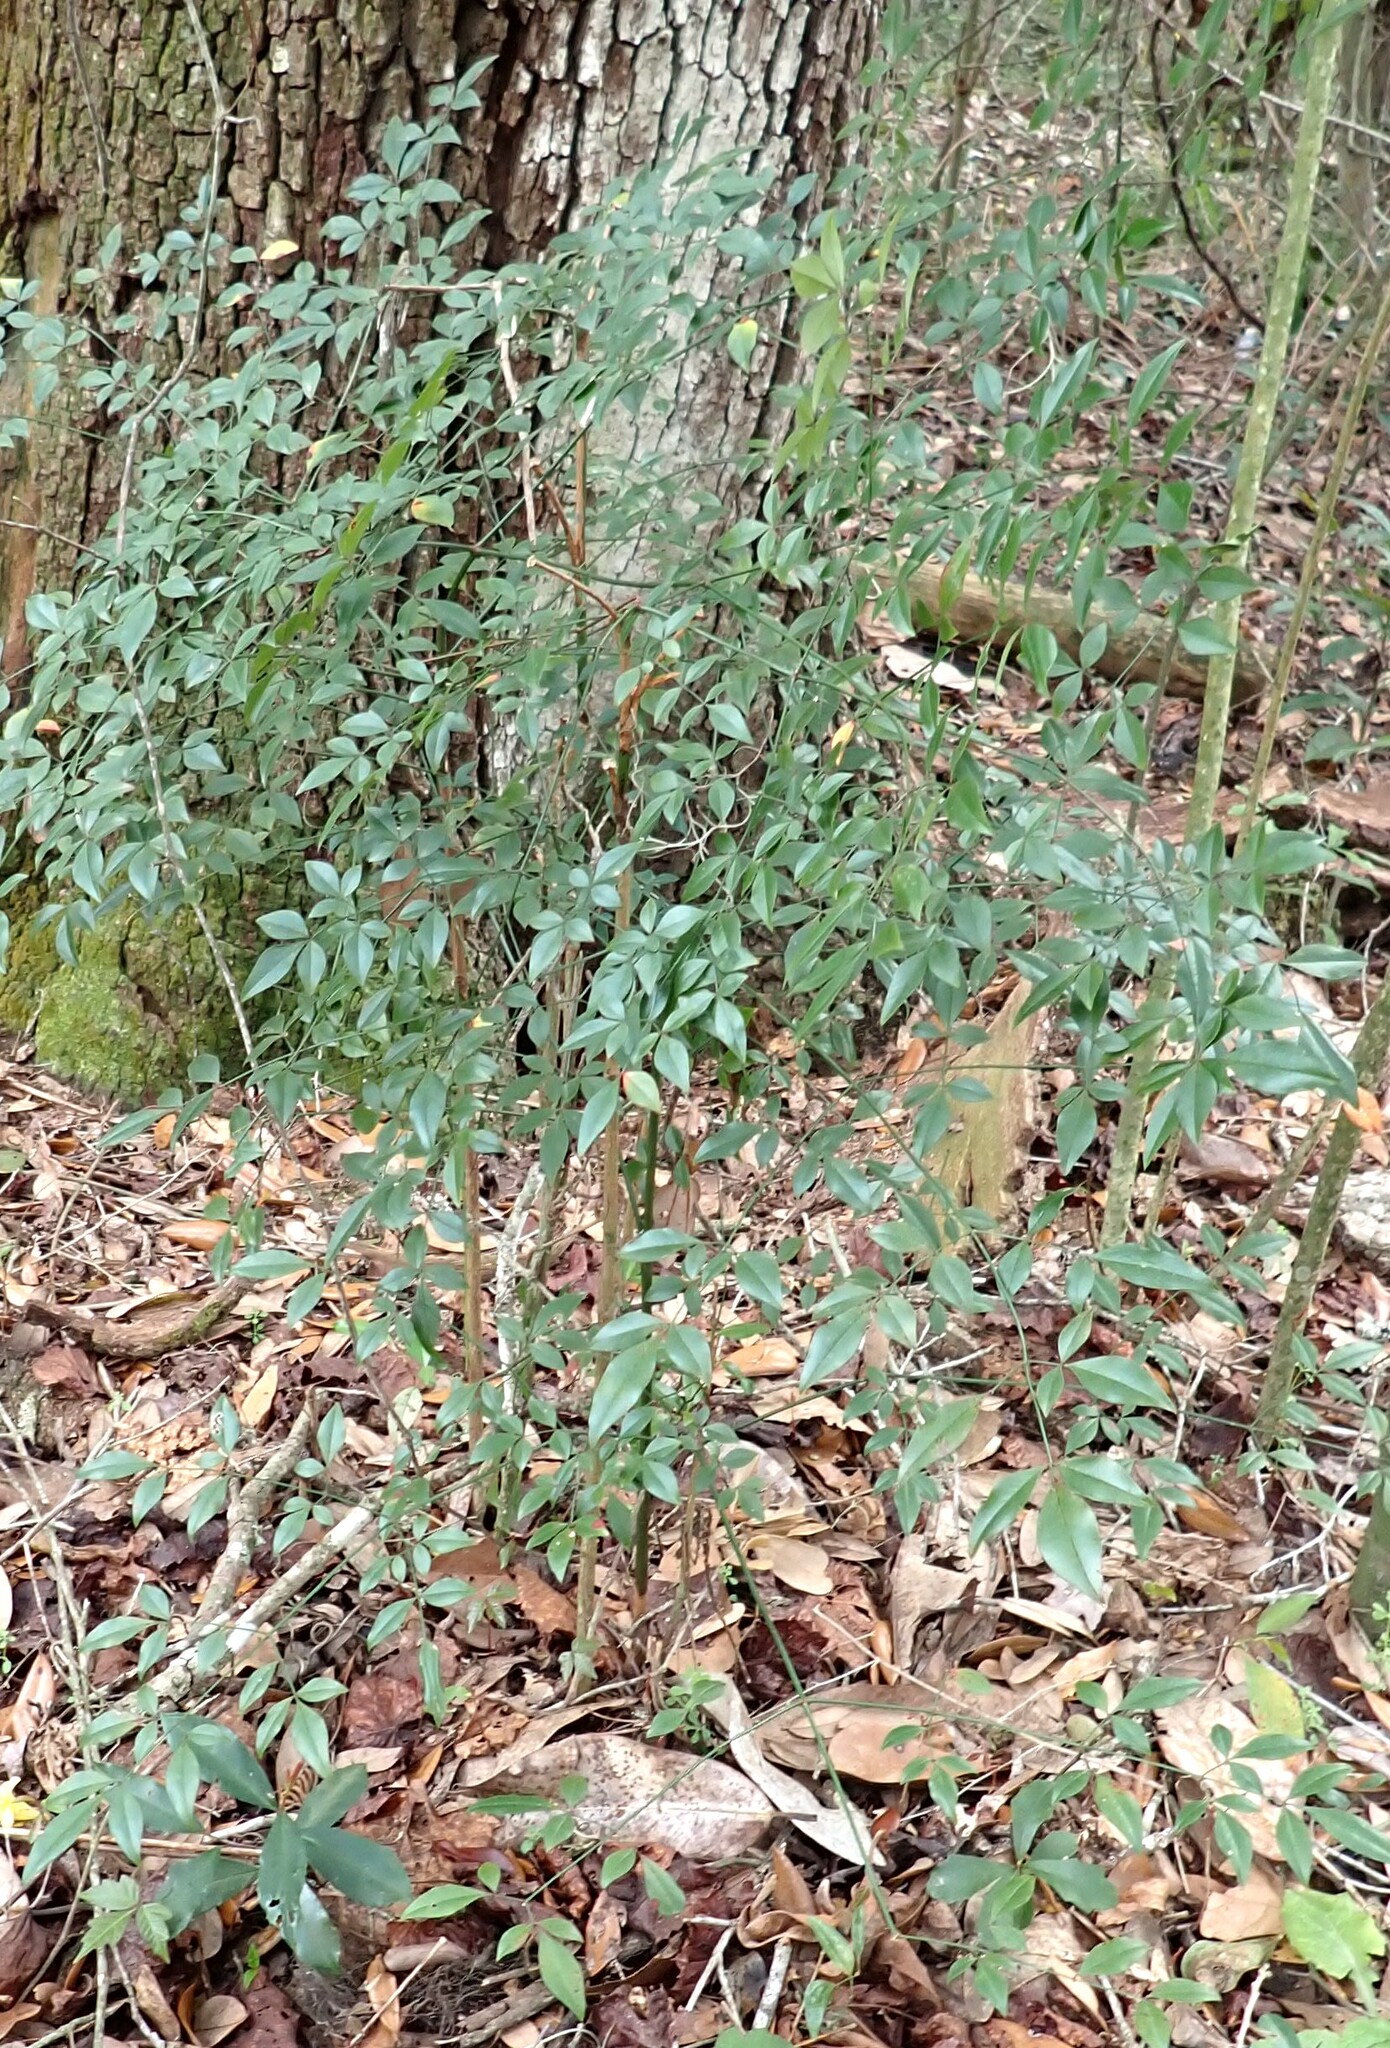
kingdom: Plantae
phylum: Tracheophyta
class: Magnoliopsida
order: Ranunculales
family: Berberidaceae
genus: Nandina
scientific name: Nandina domestica
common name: Sacred bamboo
